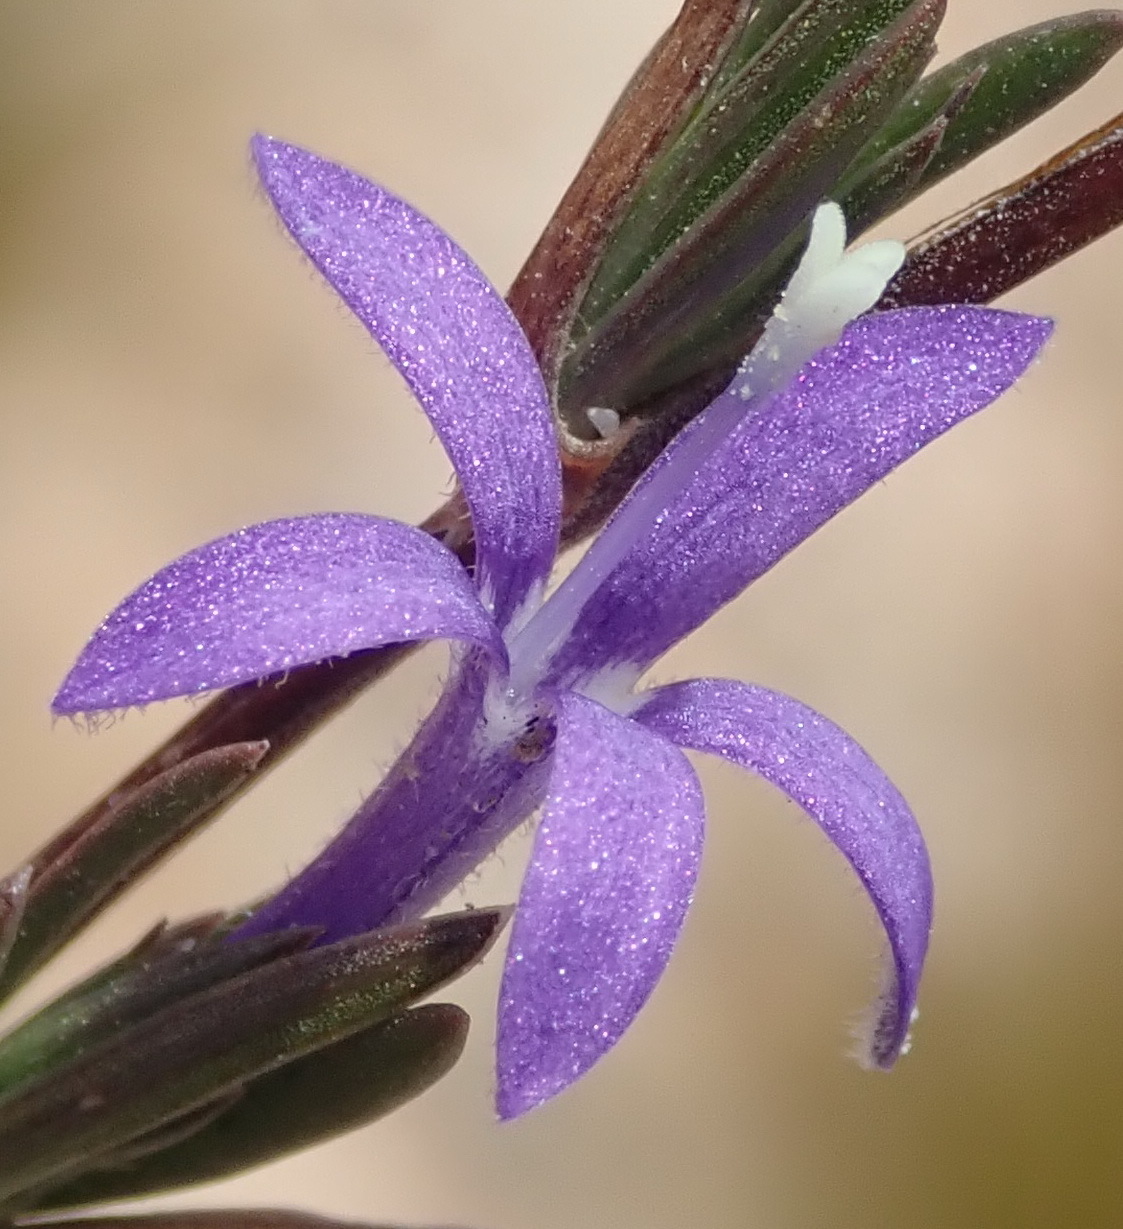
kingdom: Plantae
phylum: Tracheophyta
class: Magnoliopsida
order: Asterales
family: Campanulaceae
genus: Theilera
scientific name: Theilera guthriei
